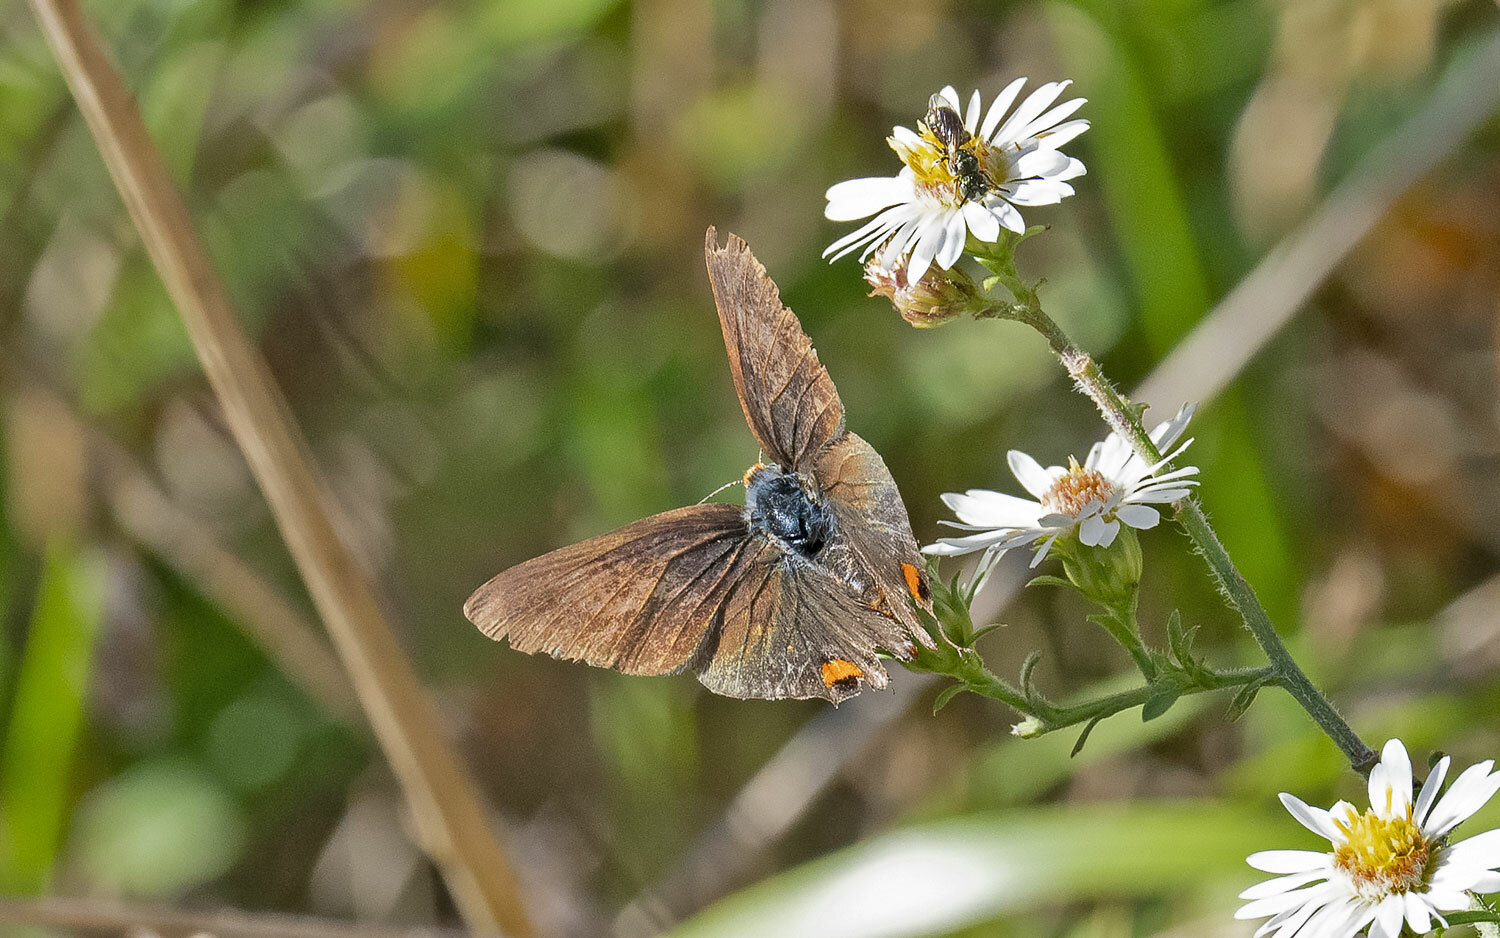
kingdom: Animalia
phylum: Arthropoda
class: Insecta
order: Lepidoptera
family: Lycaenidae
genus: Strymon
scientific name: Strymon melinus
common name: Gray hairstreak
